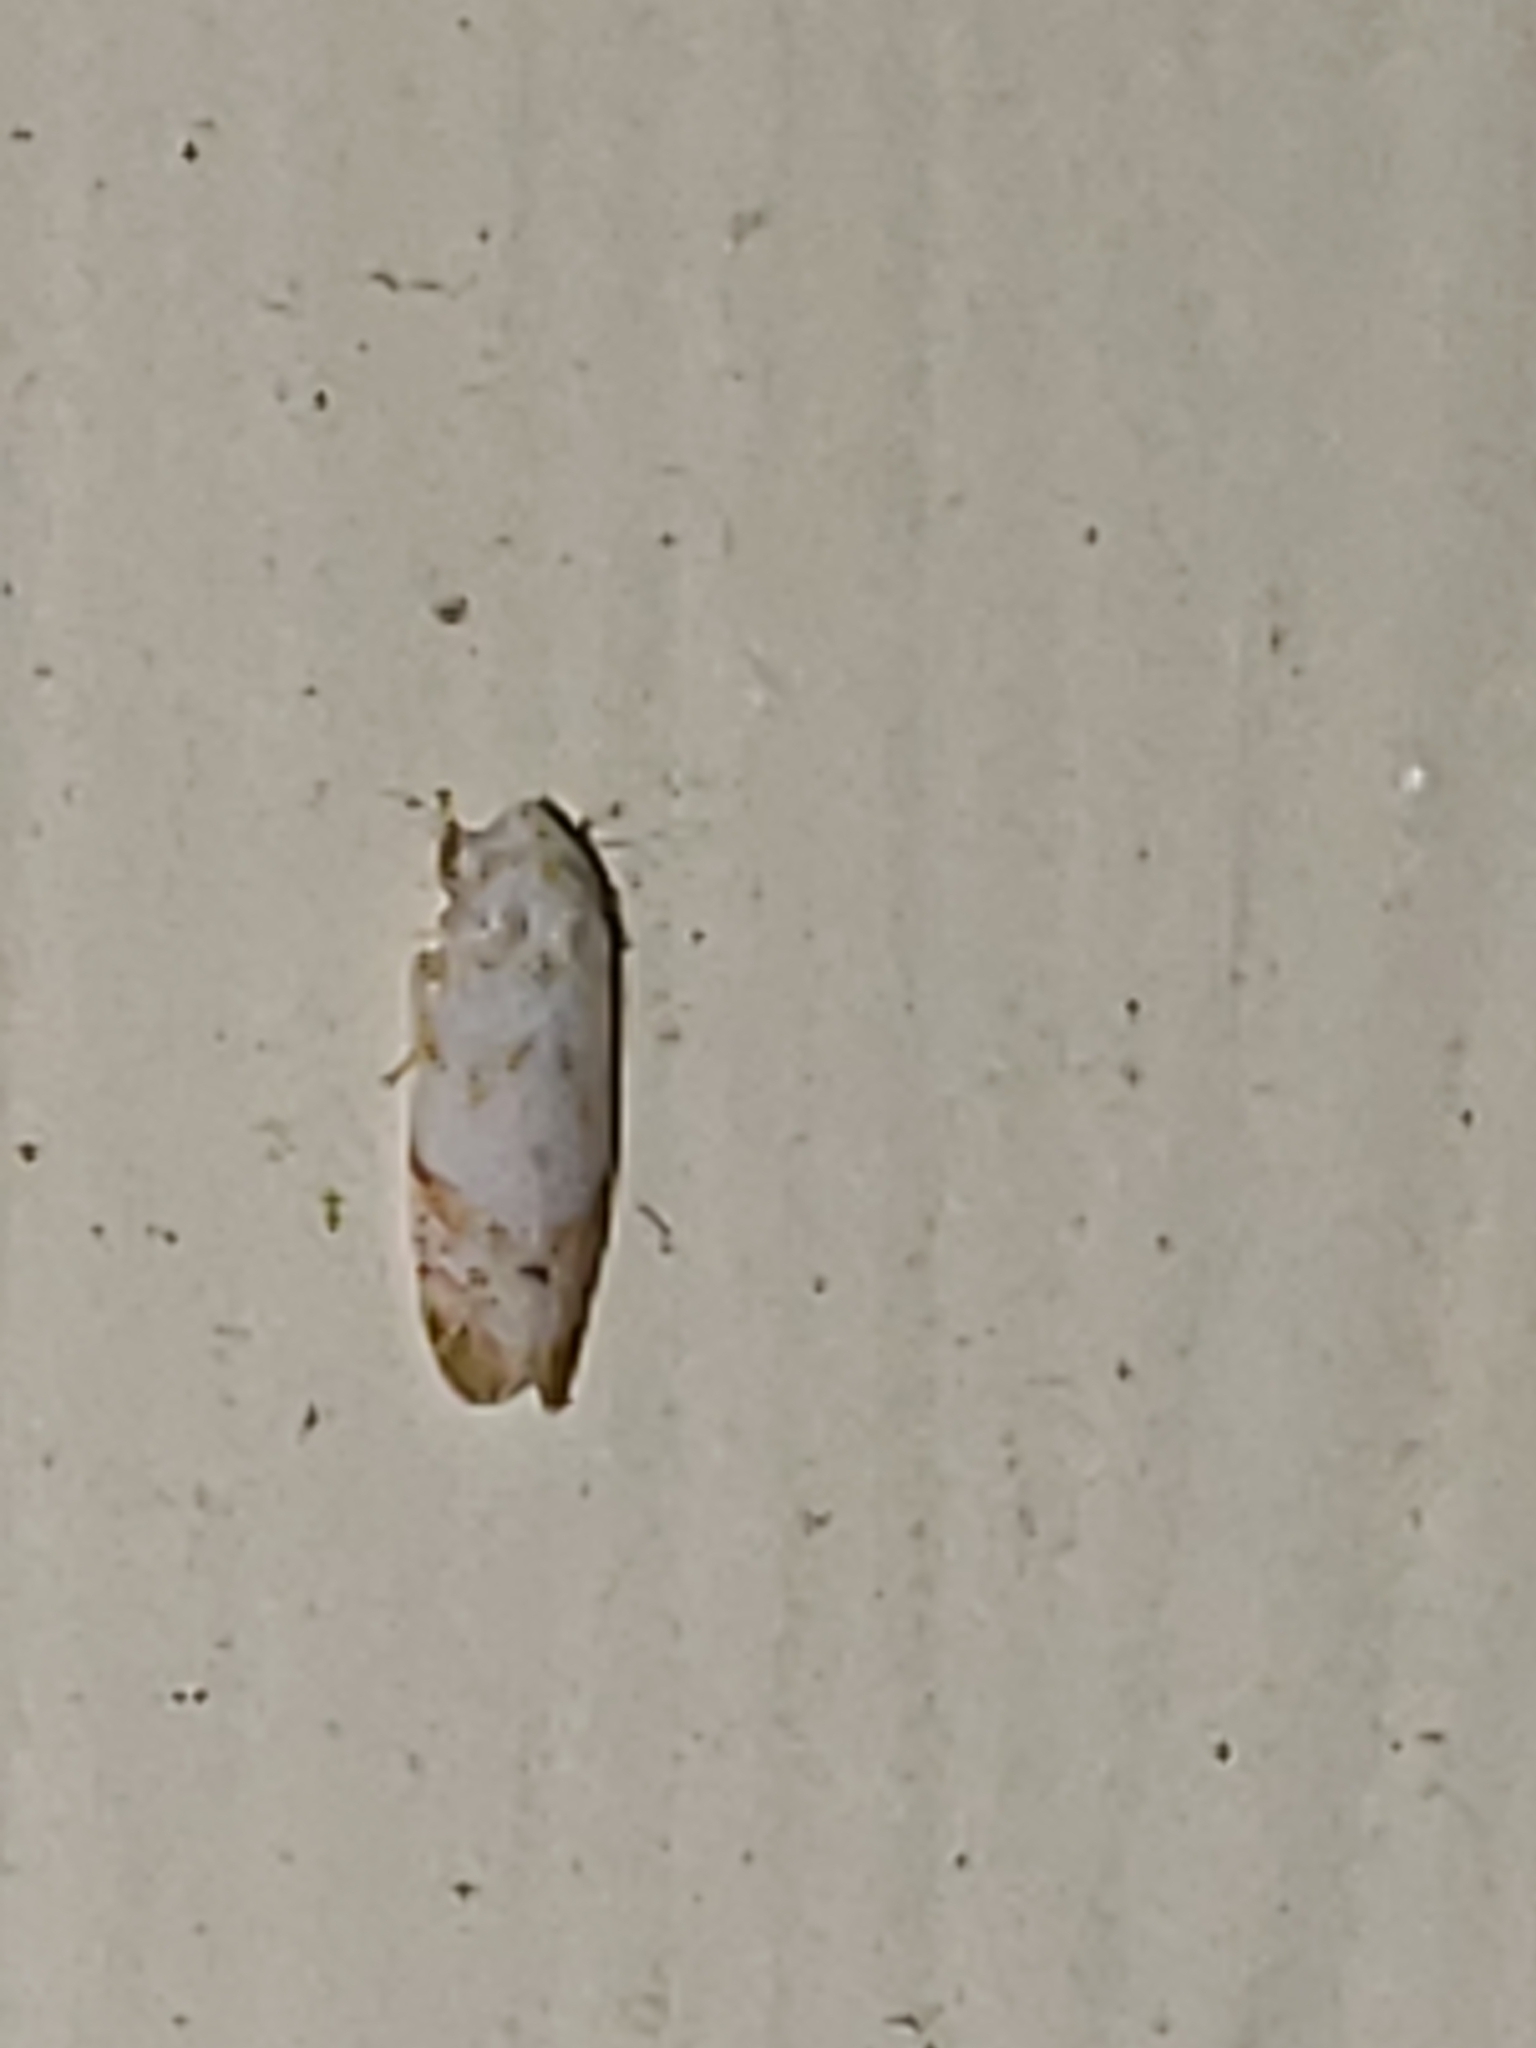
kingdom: Animalia
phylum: Arthropoda
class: Insecta
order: Hemiptera
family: Cicadellidae
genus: Eratoneura
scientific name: Eratoneura stephensoni
